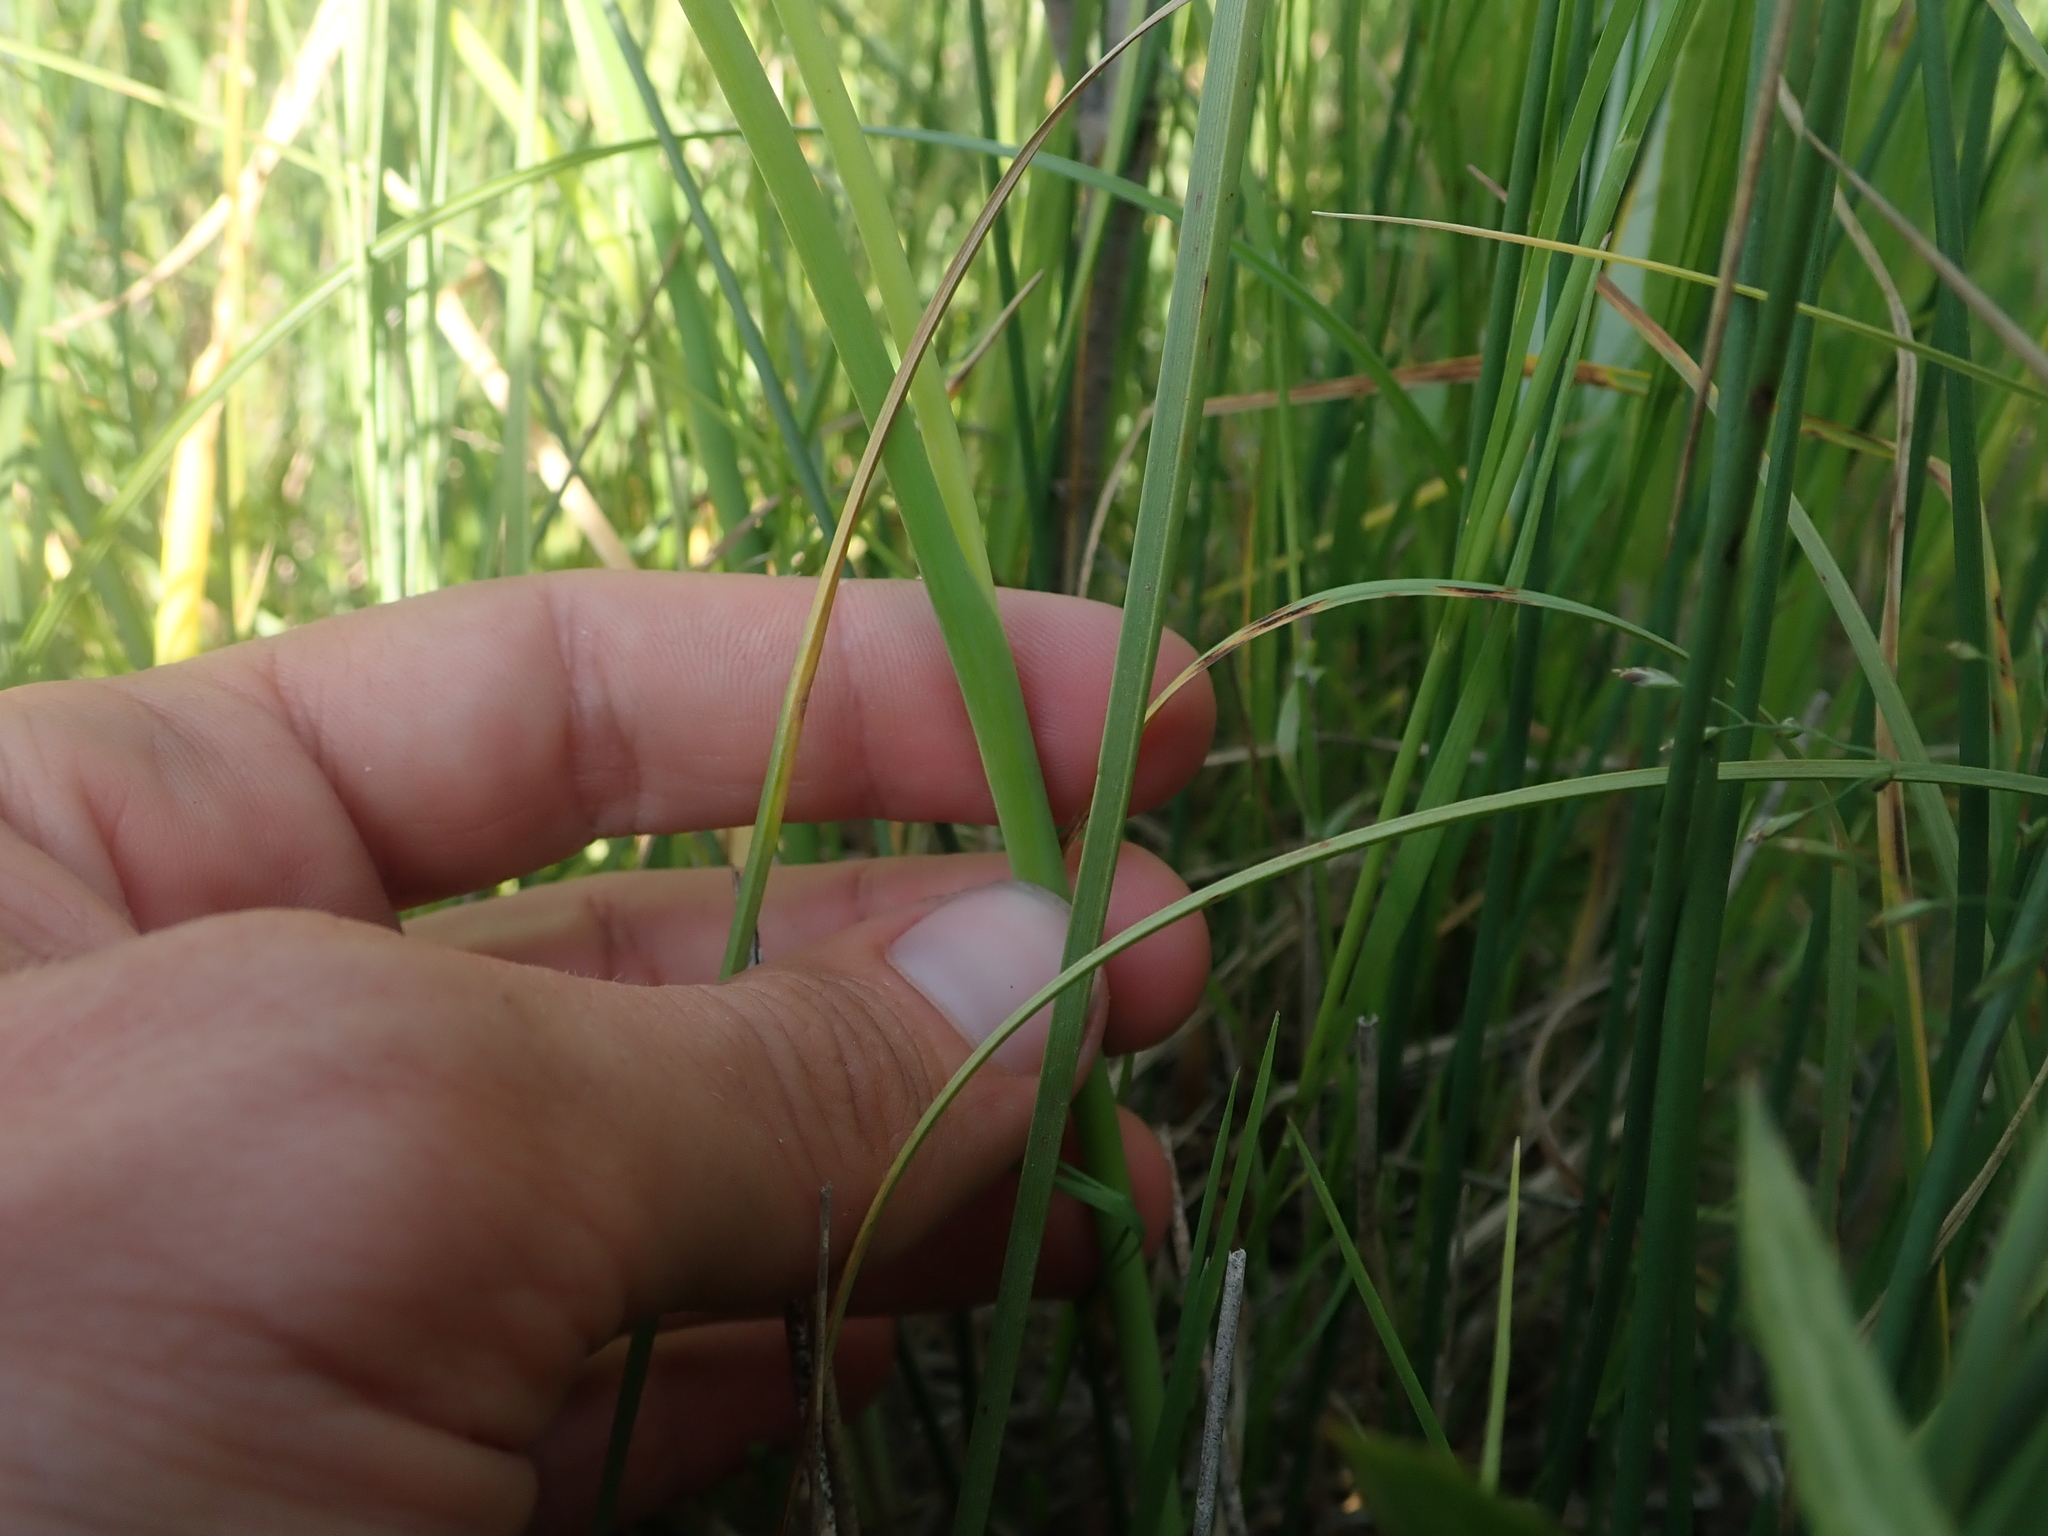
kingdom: Plantae
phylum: Tracheophyta
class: Liliopsida
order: Asparagales
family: Amaryllidaceae
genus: Allium
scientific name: Allium schoenoprasum
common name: Chives
